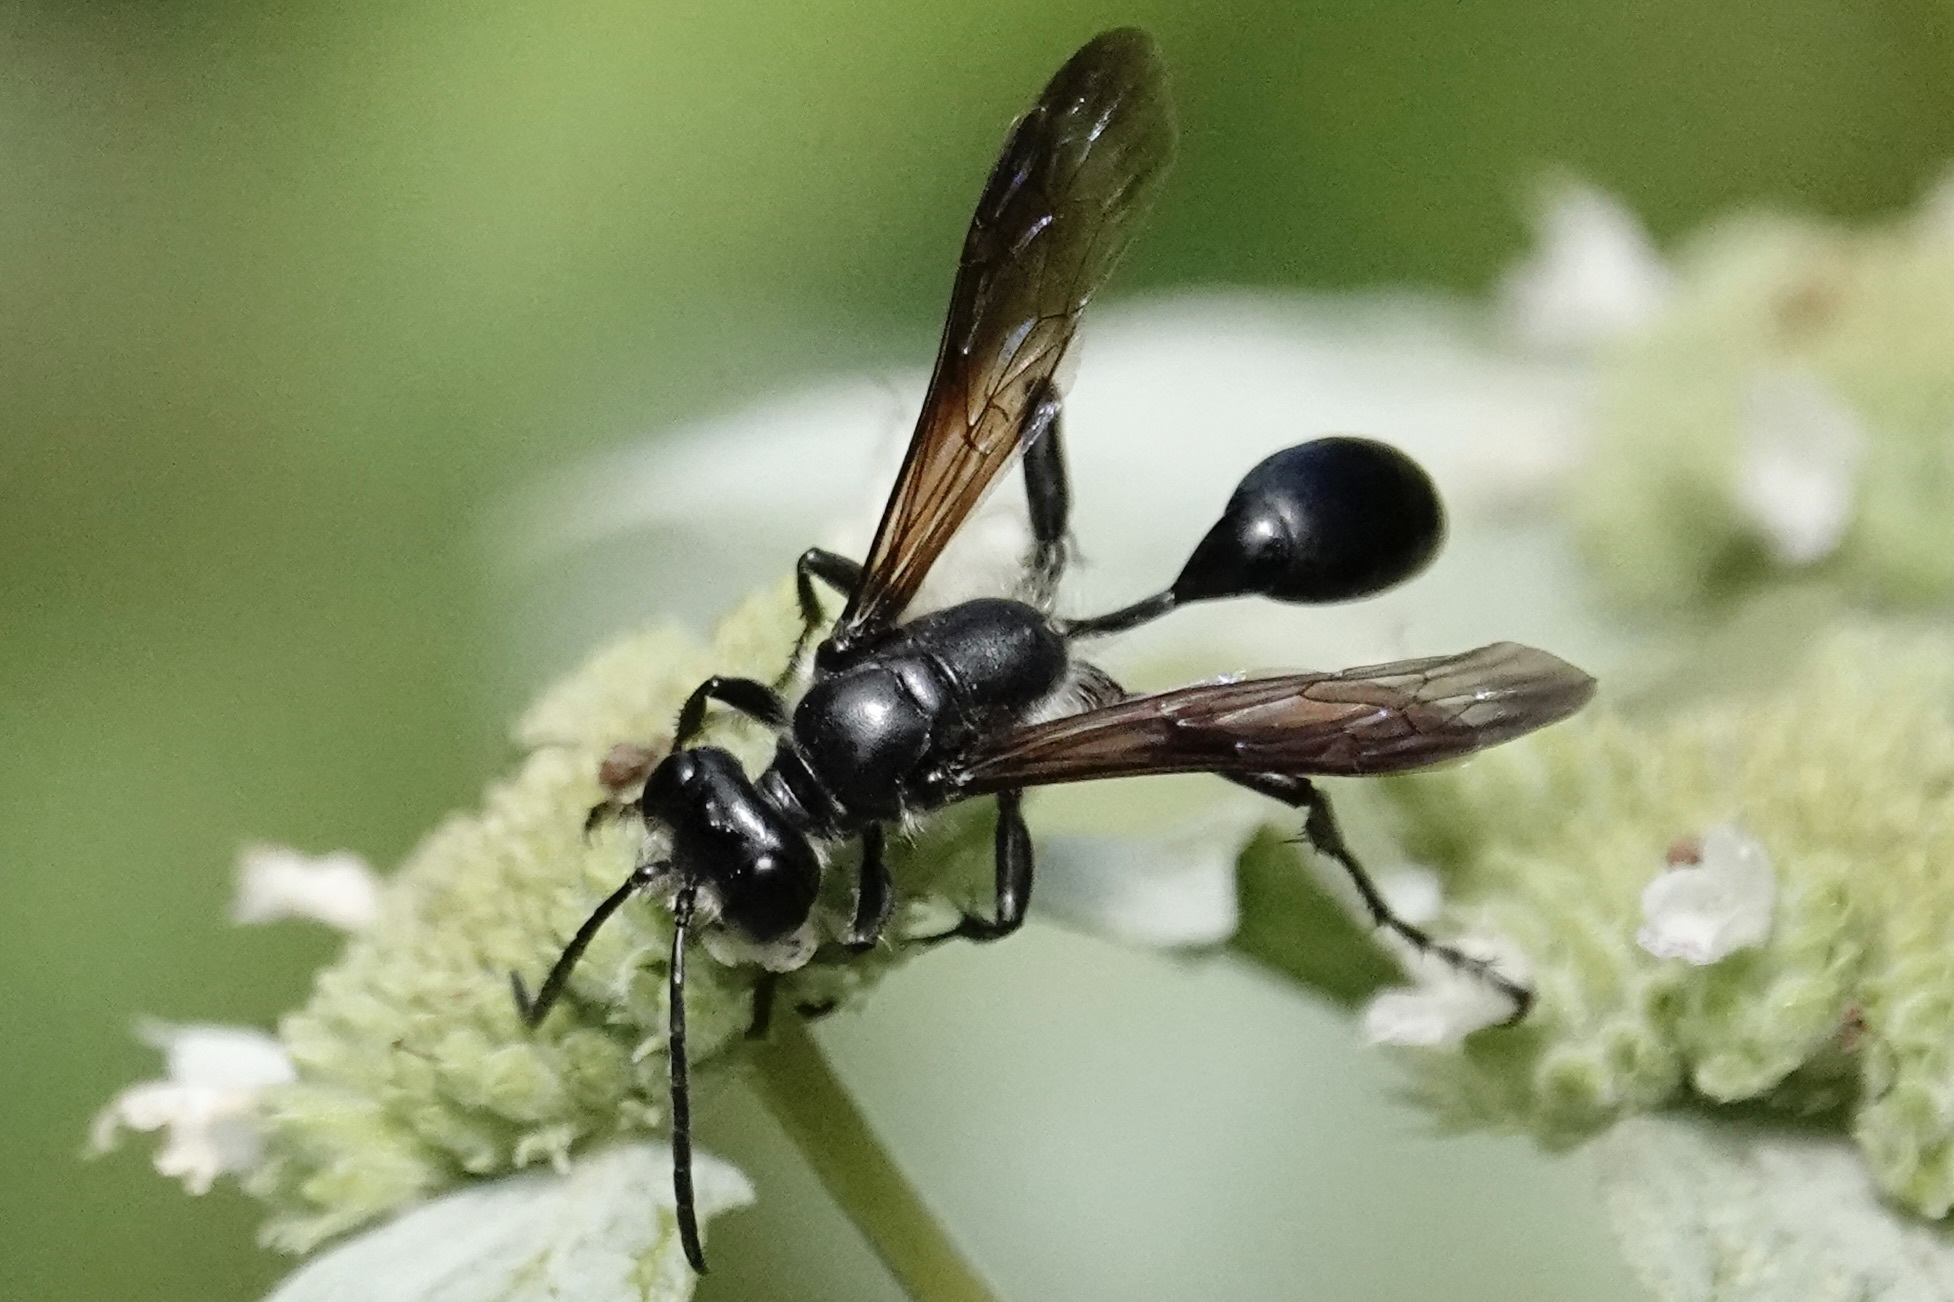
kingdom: Animalia
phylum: Arthropoda
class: Insecta
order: Hymenoptera
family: Sphecidae
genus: Isodontia
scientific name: Isodontia mexicana
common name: Mud dauber
